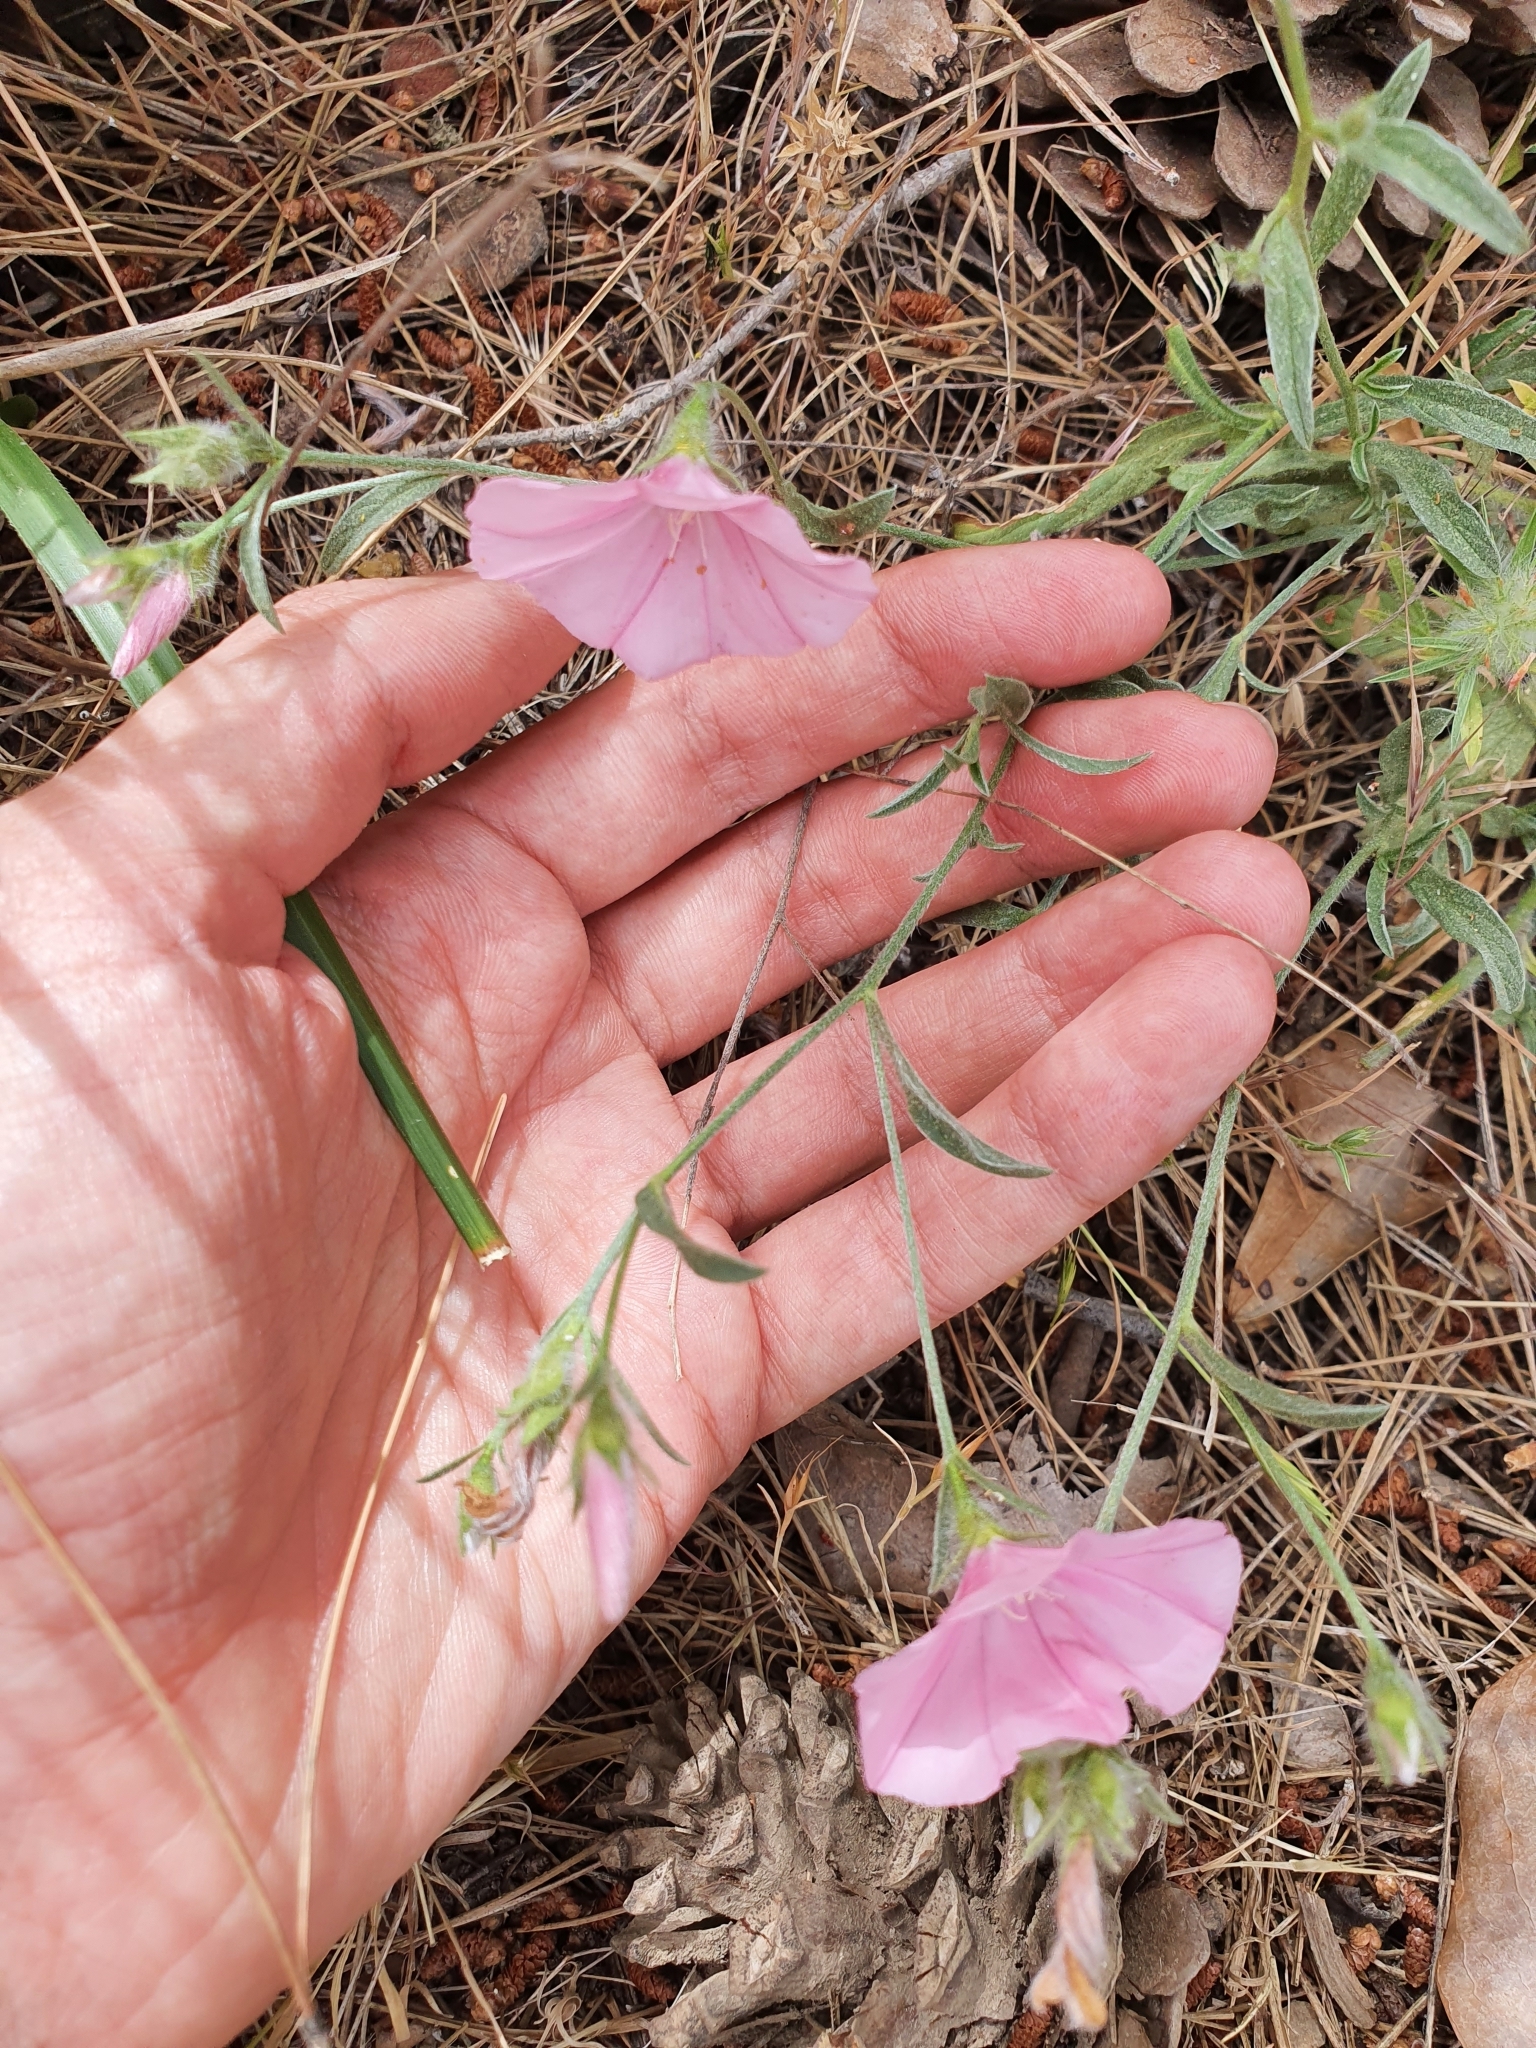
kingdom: Plantae
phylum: Tracheophyta
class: Magnoliopsida
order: Solanales
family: Convolvulaceae
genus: Convolvulus
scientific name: Convolvulus cantabrica
